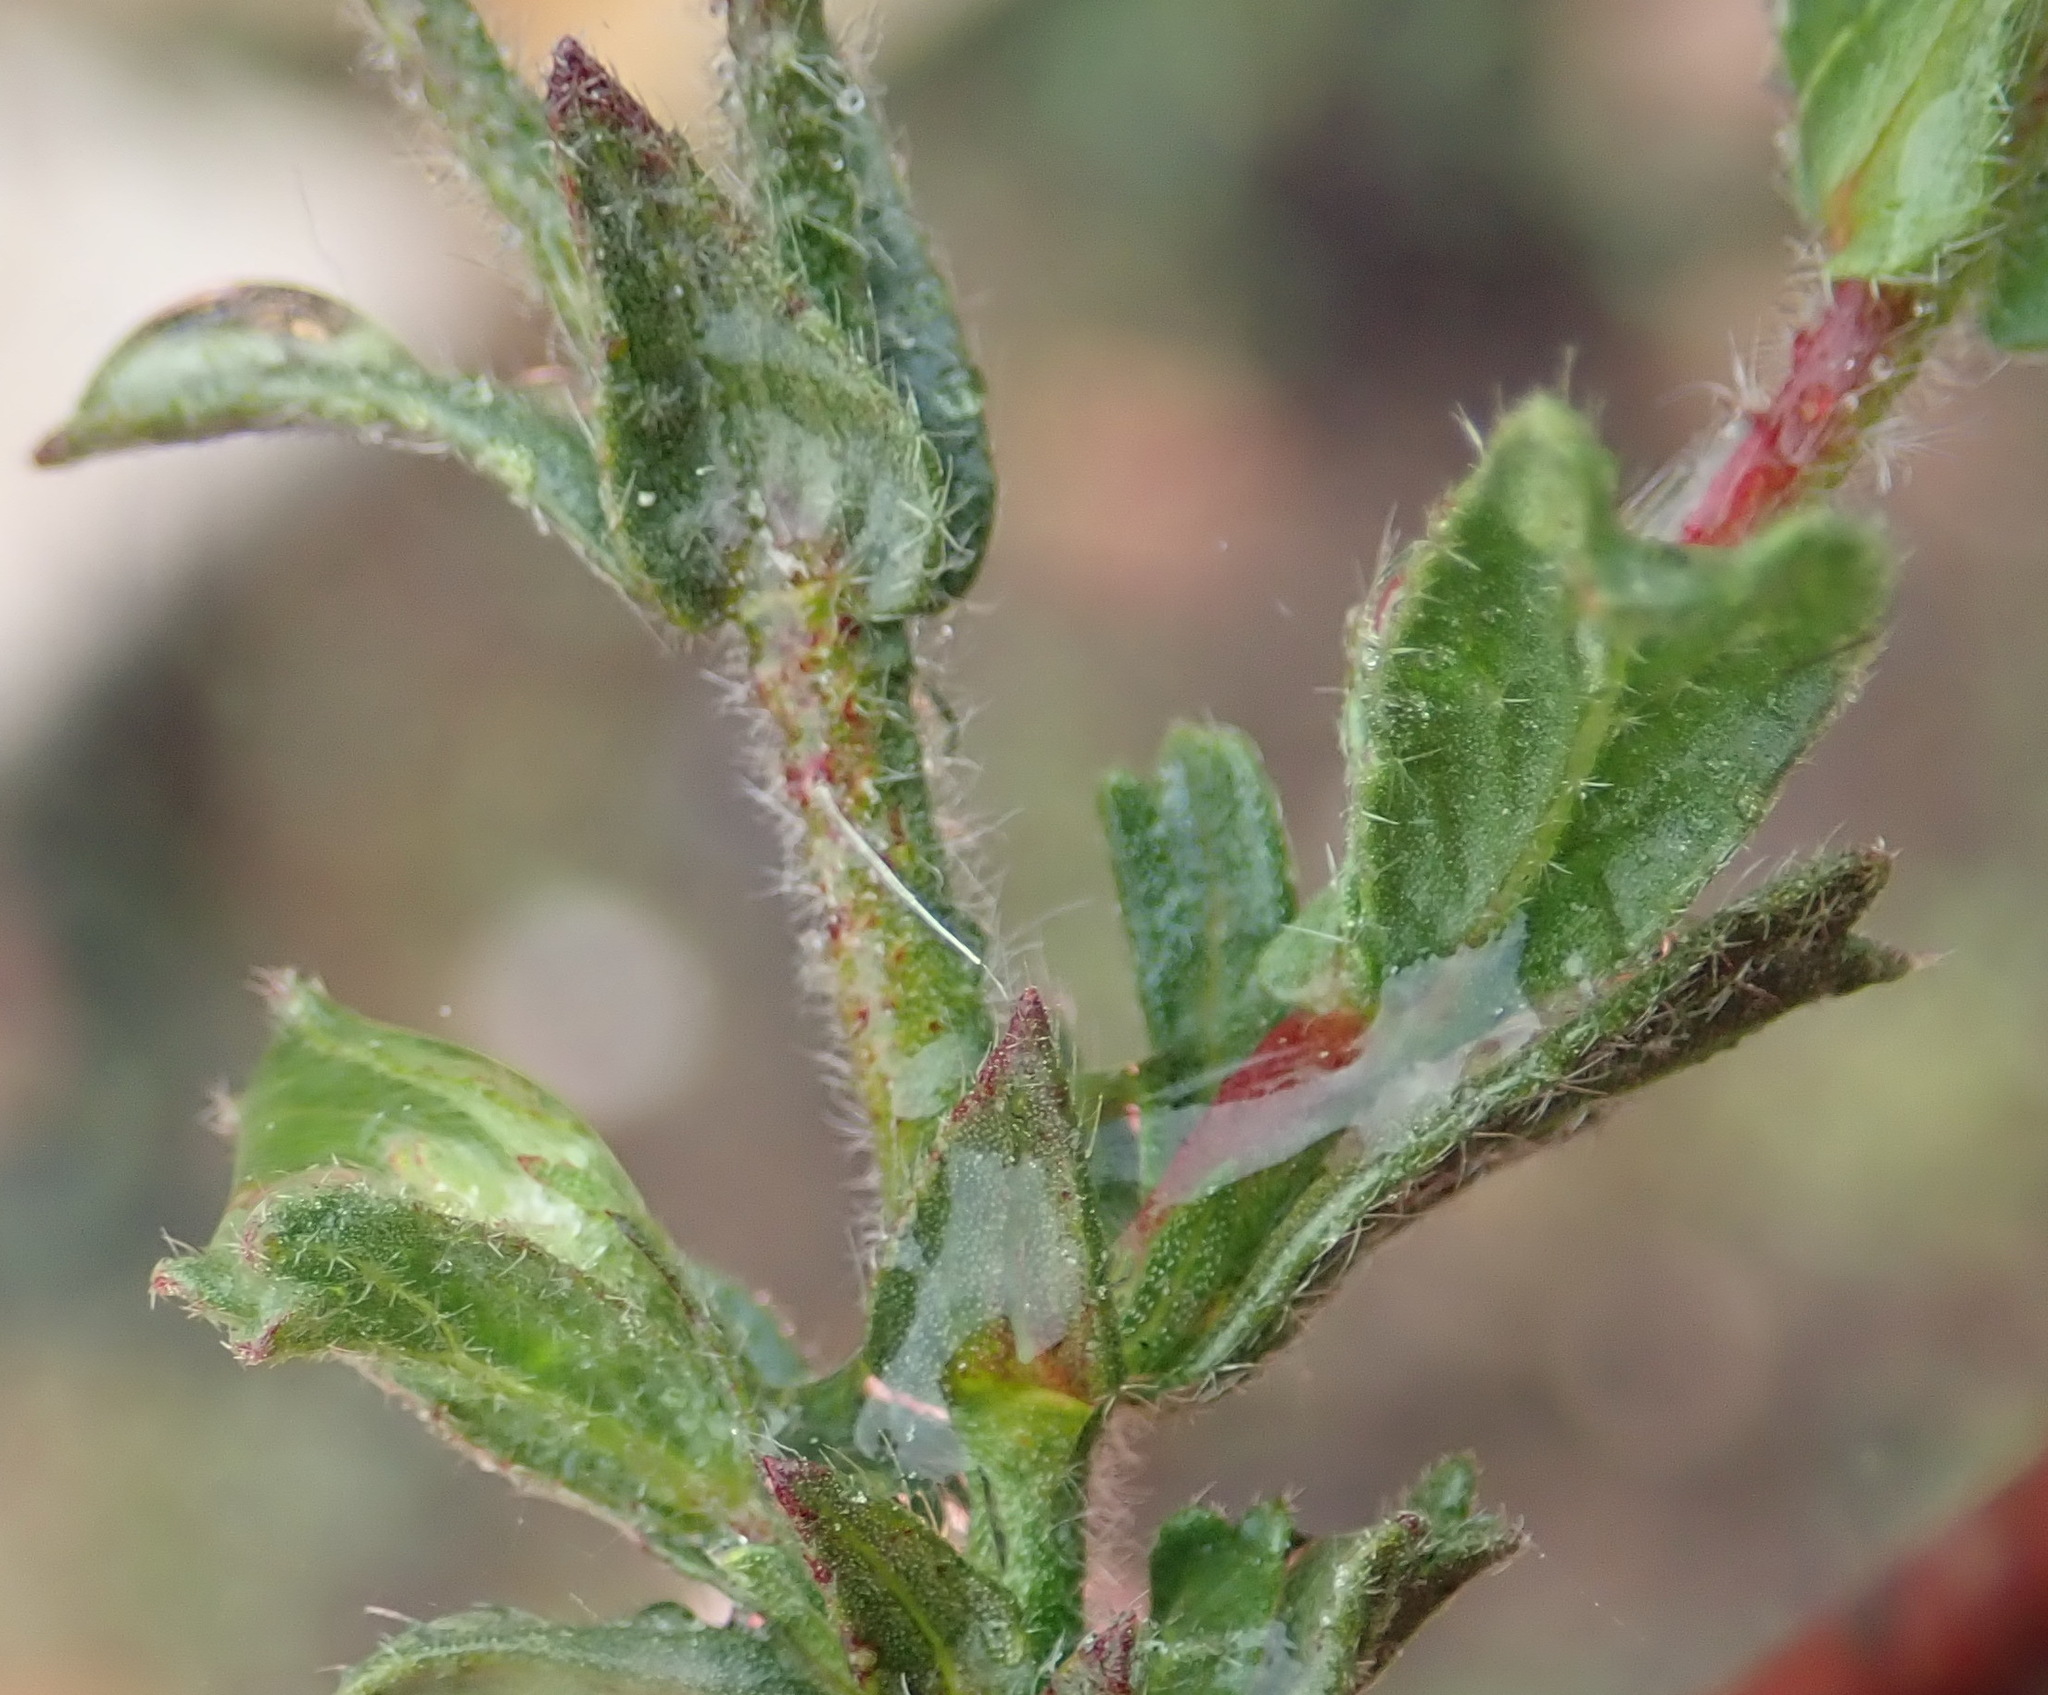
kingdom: Plantae
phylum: Tracheophyta
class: Magnoliopsida
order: Malvales
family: Malvaceae
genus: Hermannia
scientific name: Hermannia stipulacea
